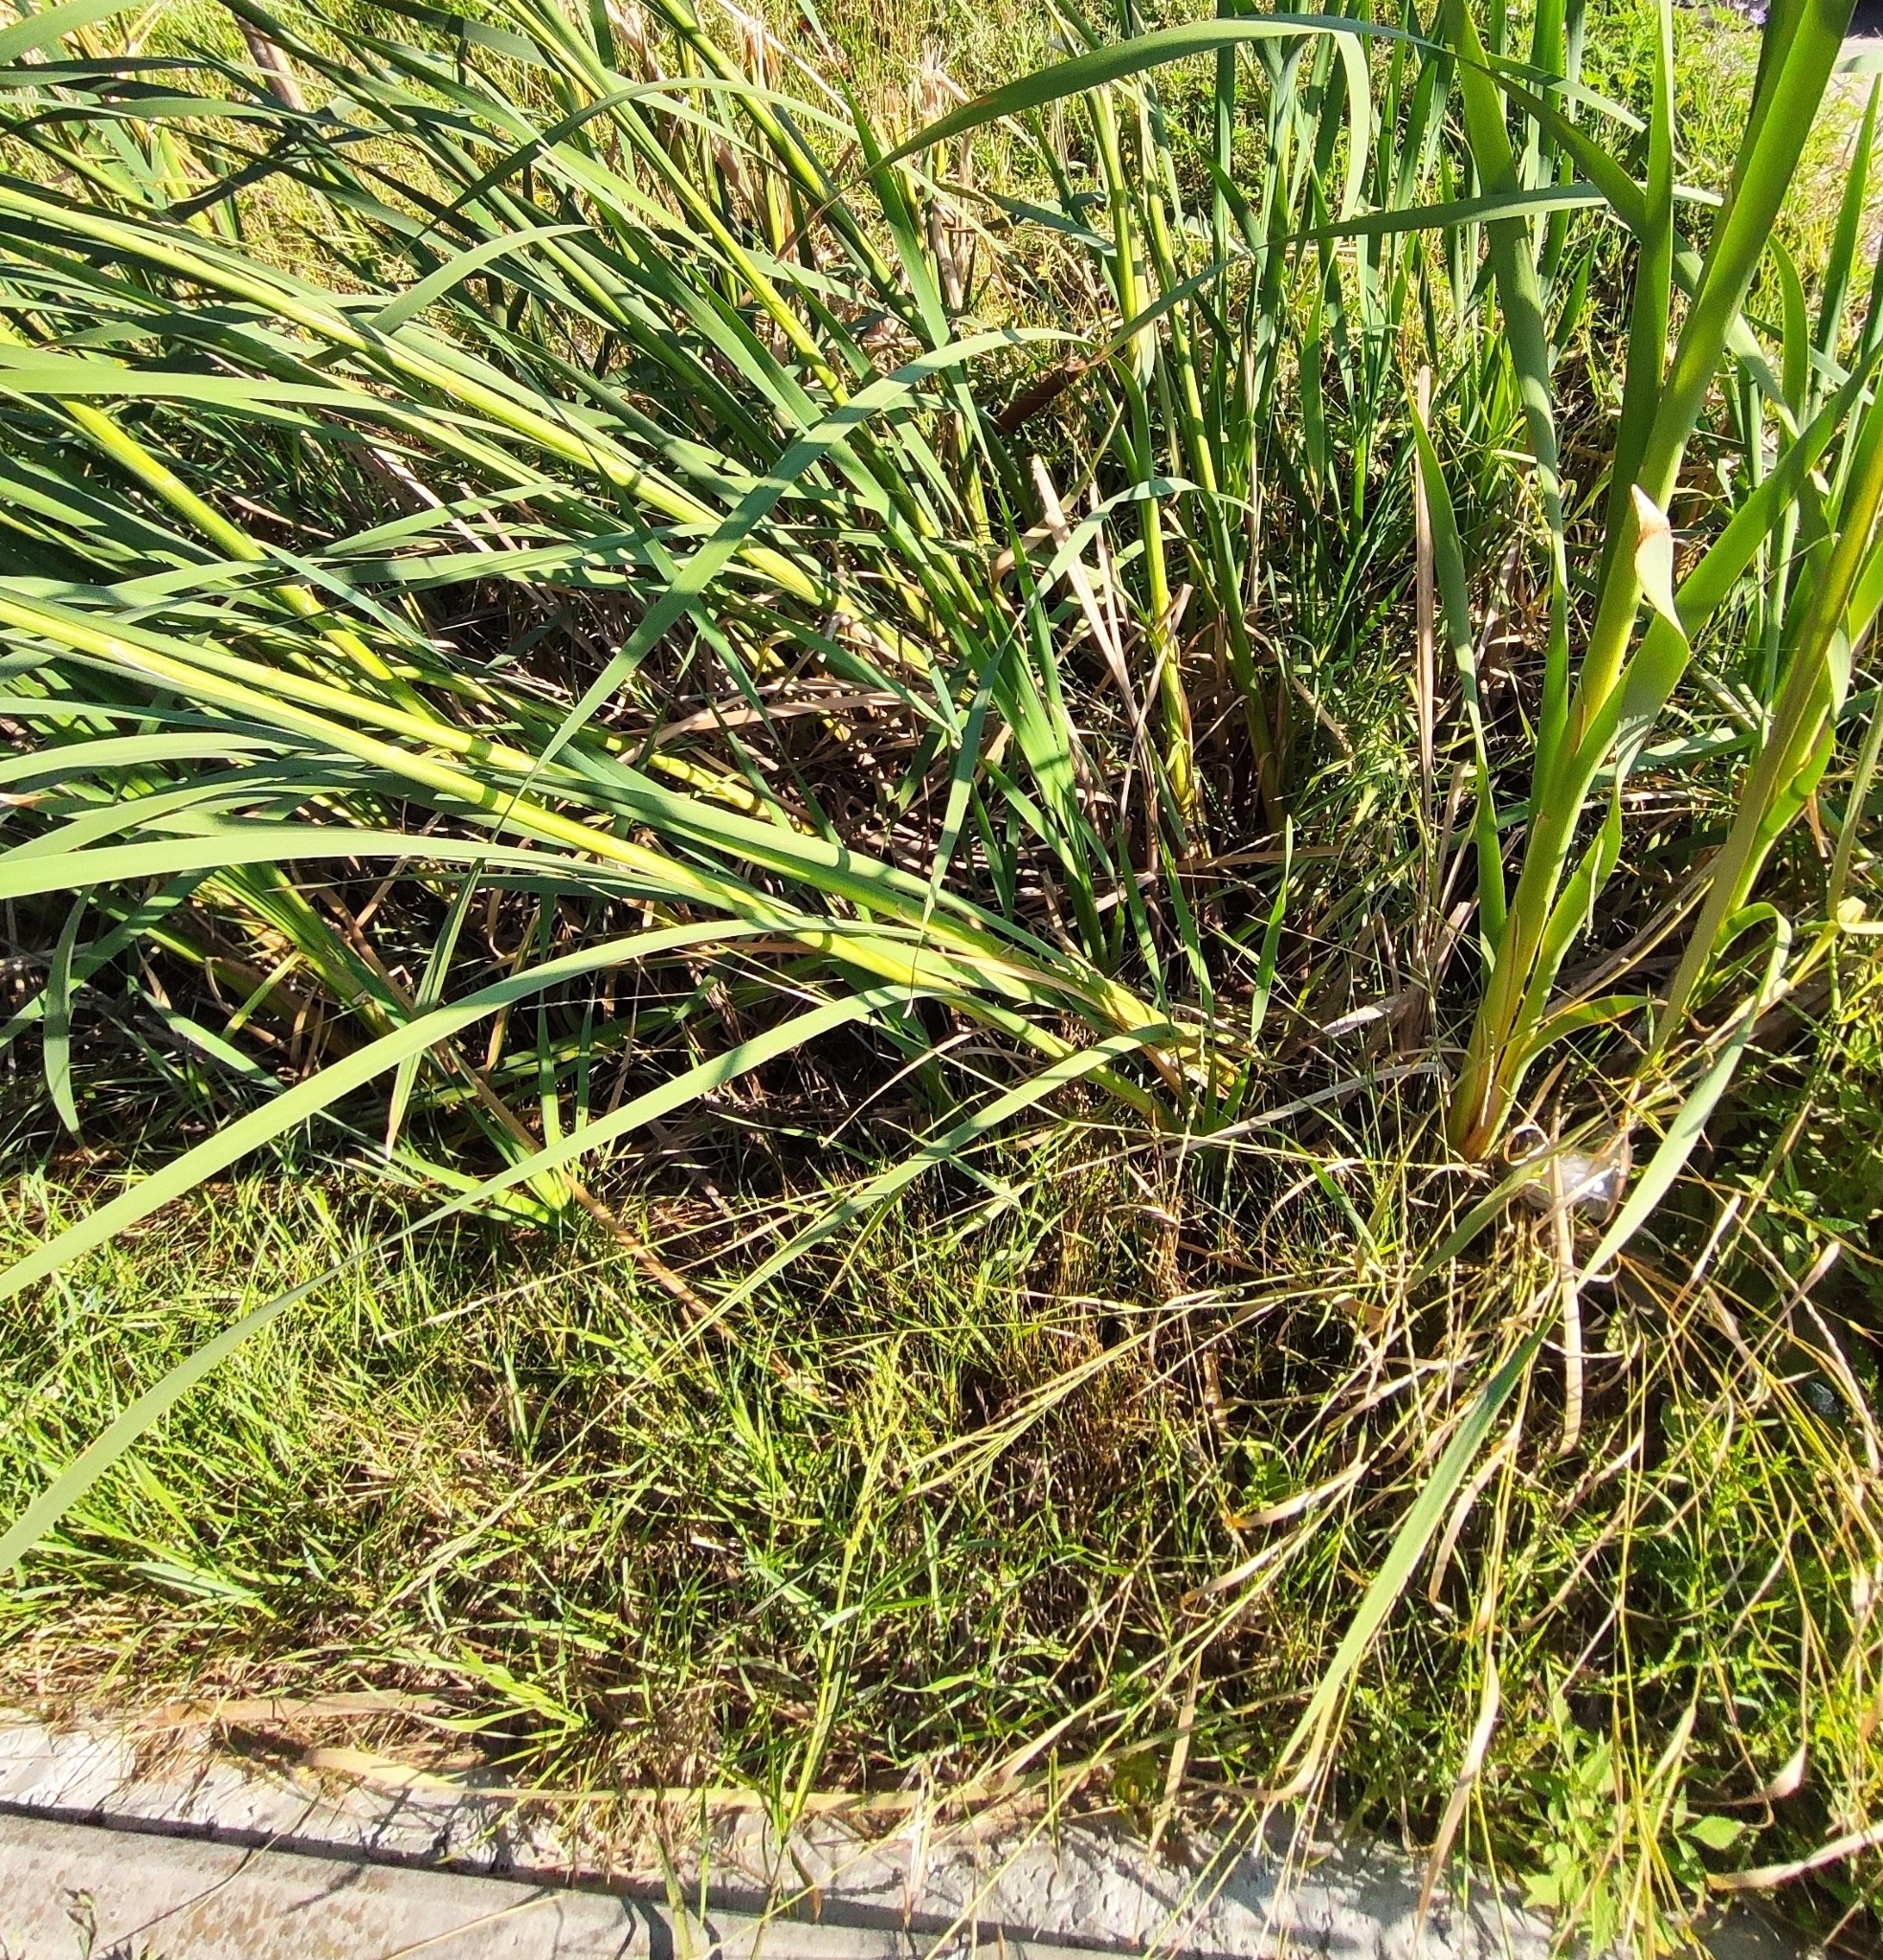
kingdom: Plantae
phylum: Tracheophyta
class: Liliopsida
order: Poales
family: Typhaceae
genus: Typha
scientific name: Typha angustifolia
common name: Lesser bulrush
